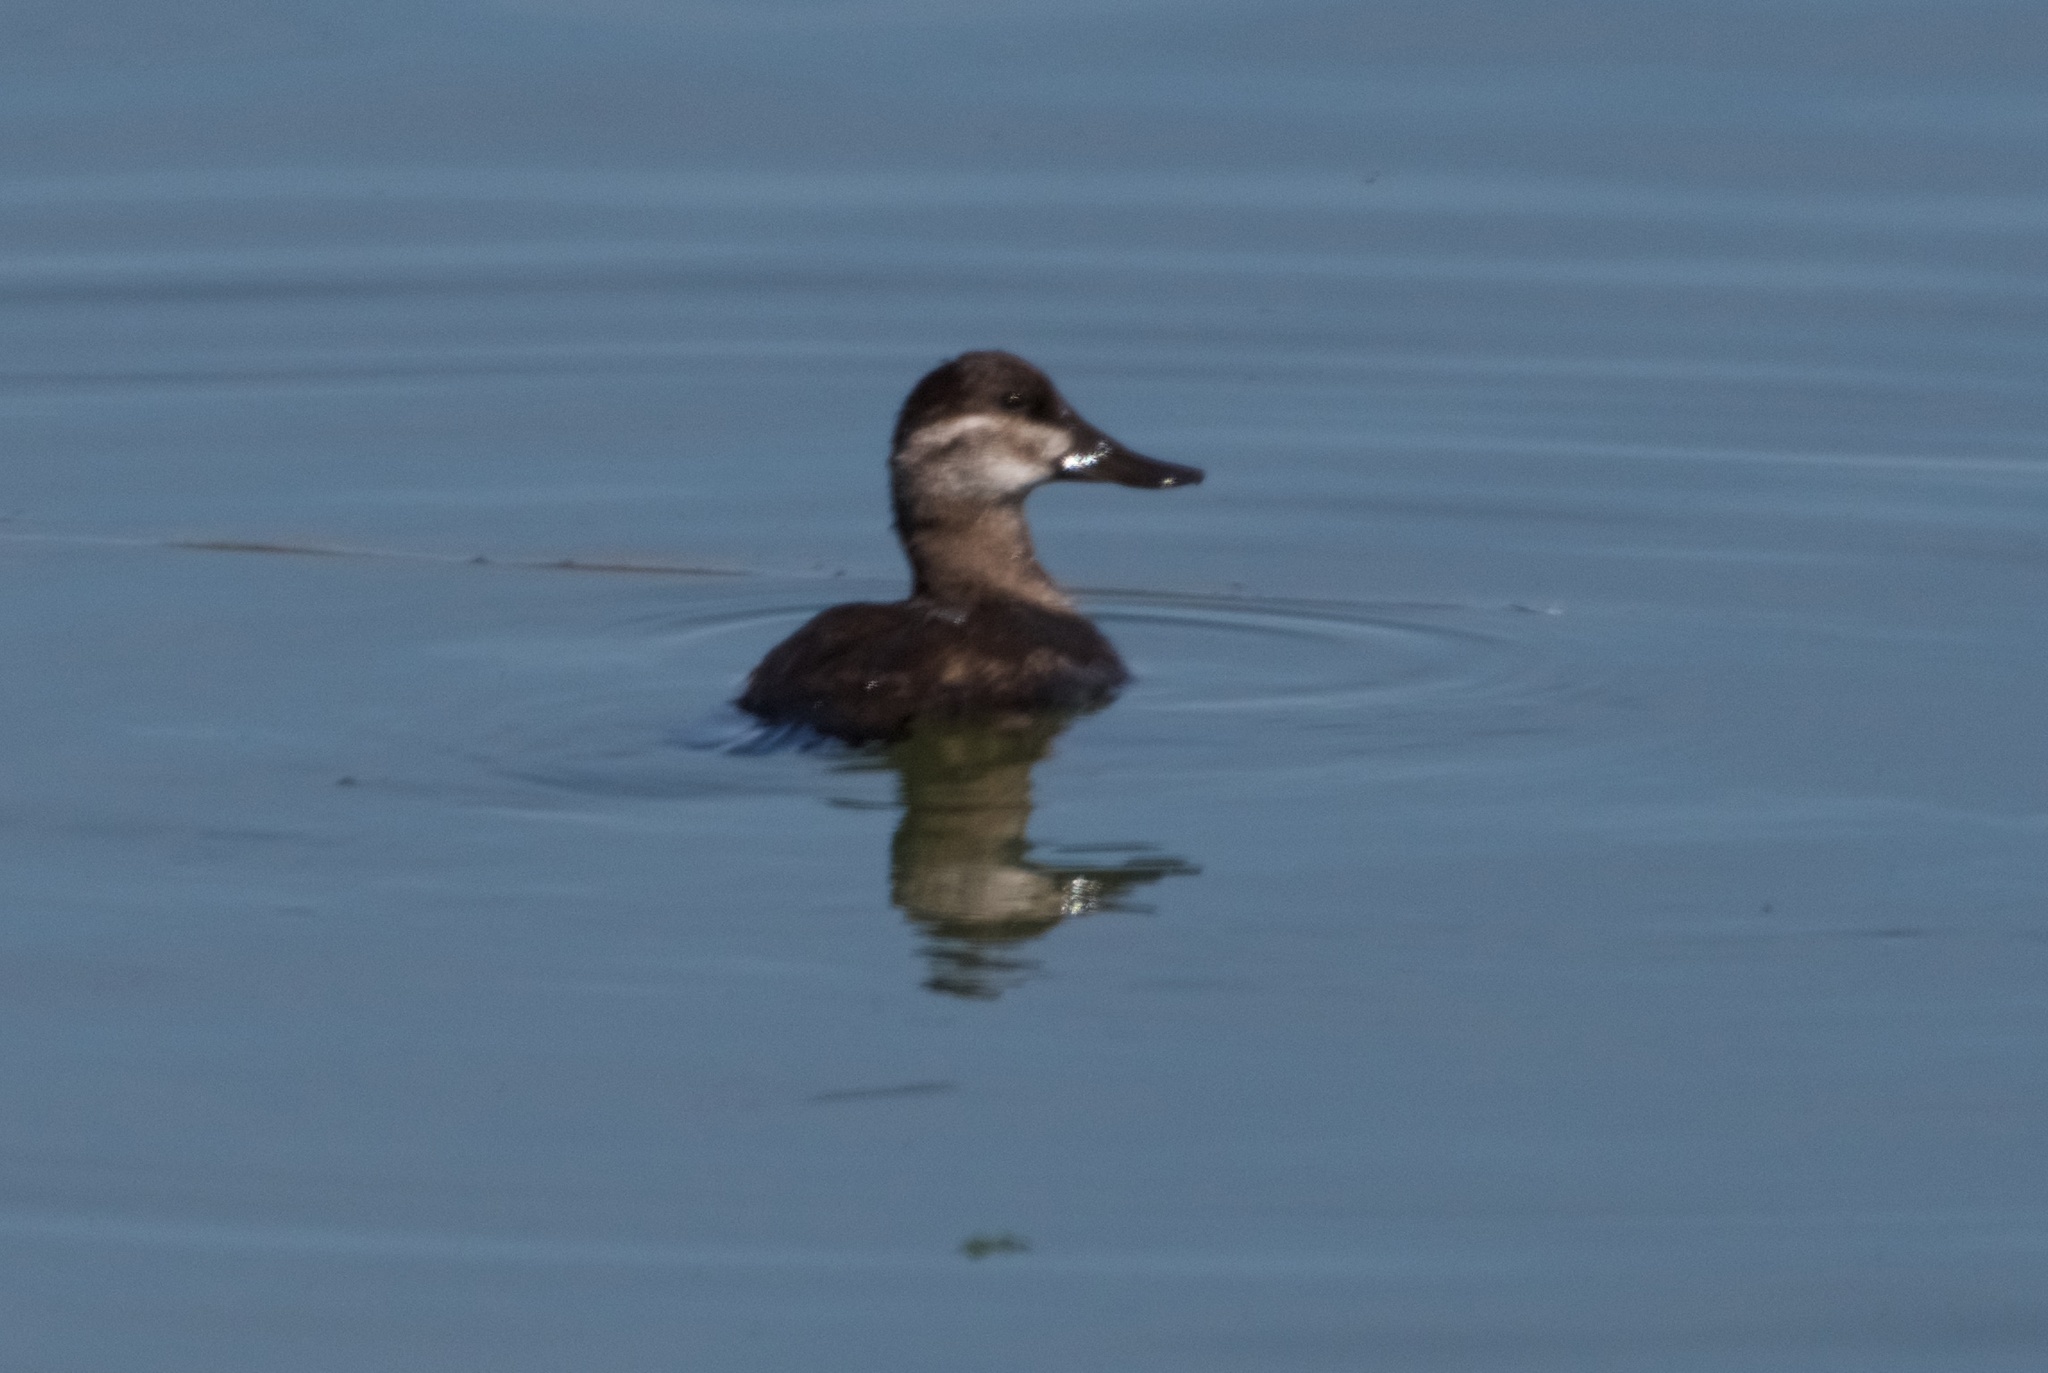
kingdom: Animalia
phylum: Chordata
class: Aves
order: Anseriformes
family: Anatidae
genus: Oxyura
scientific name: Oxyura jamaicensis
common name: Ruddy duck
